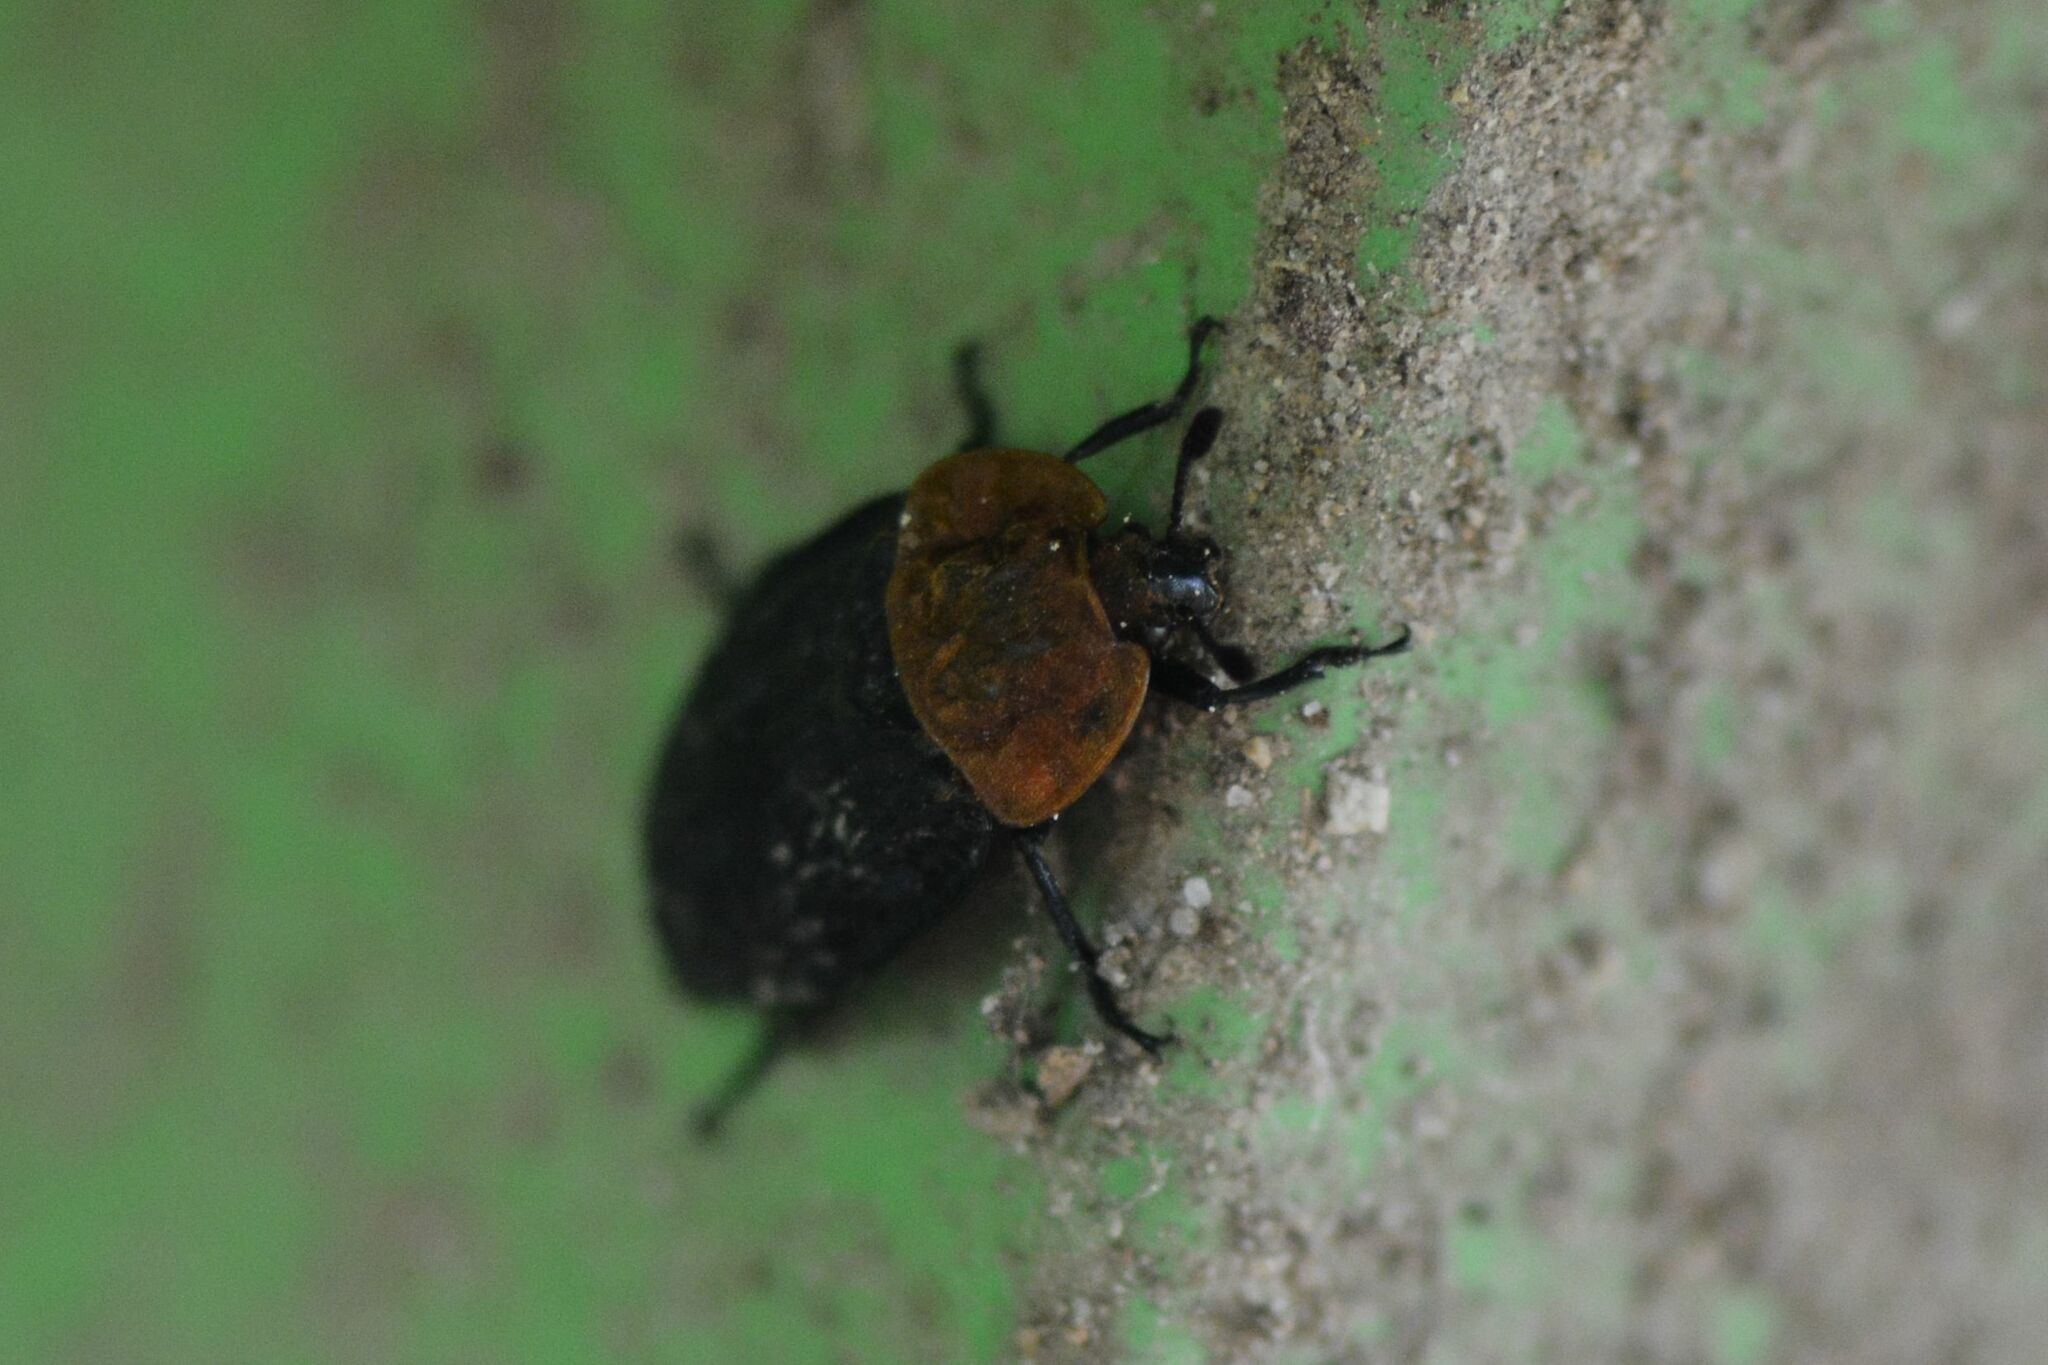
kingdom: Animalia
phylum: Arthropoda
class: Insecta
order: Coleoptera
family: Staphylinidae
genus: Oiceoptoma
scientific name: Oiceoptoma thoracicum
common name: Red-breasted carrion beetle
